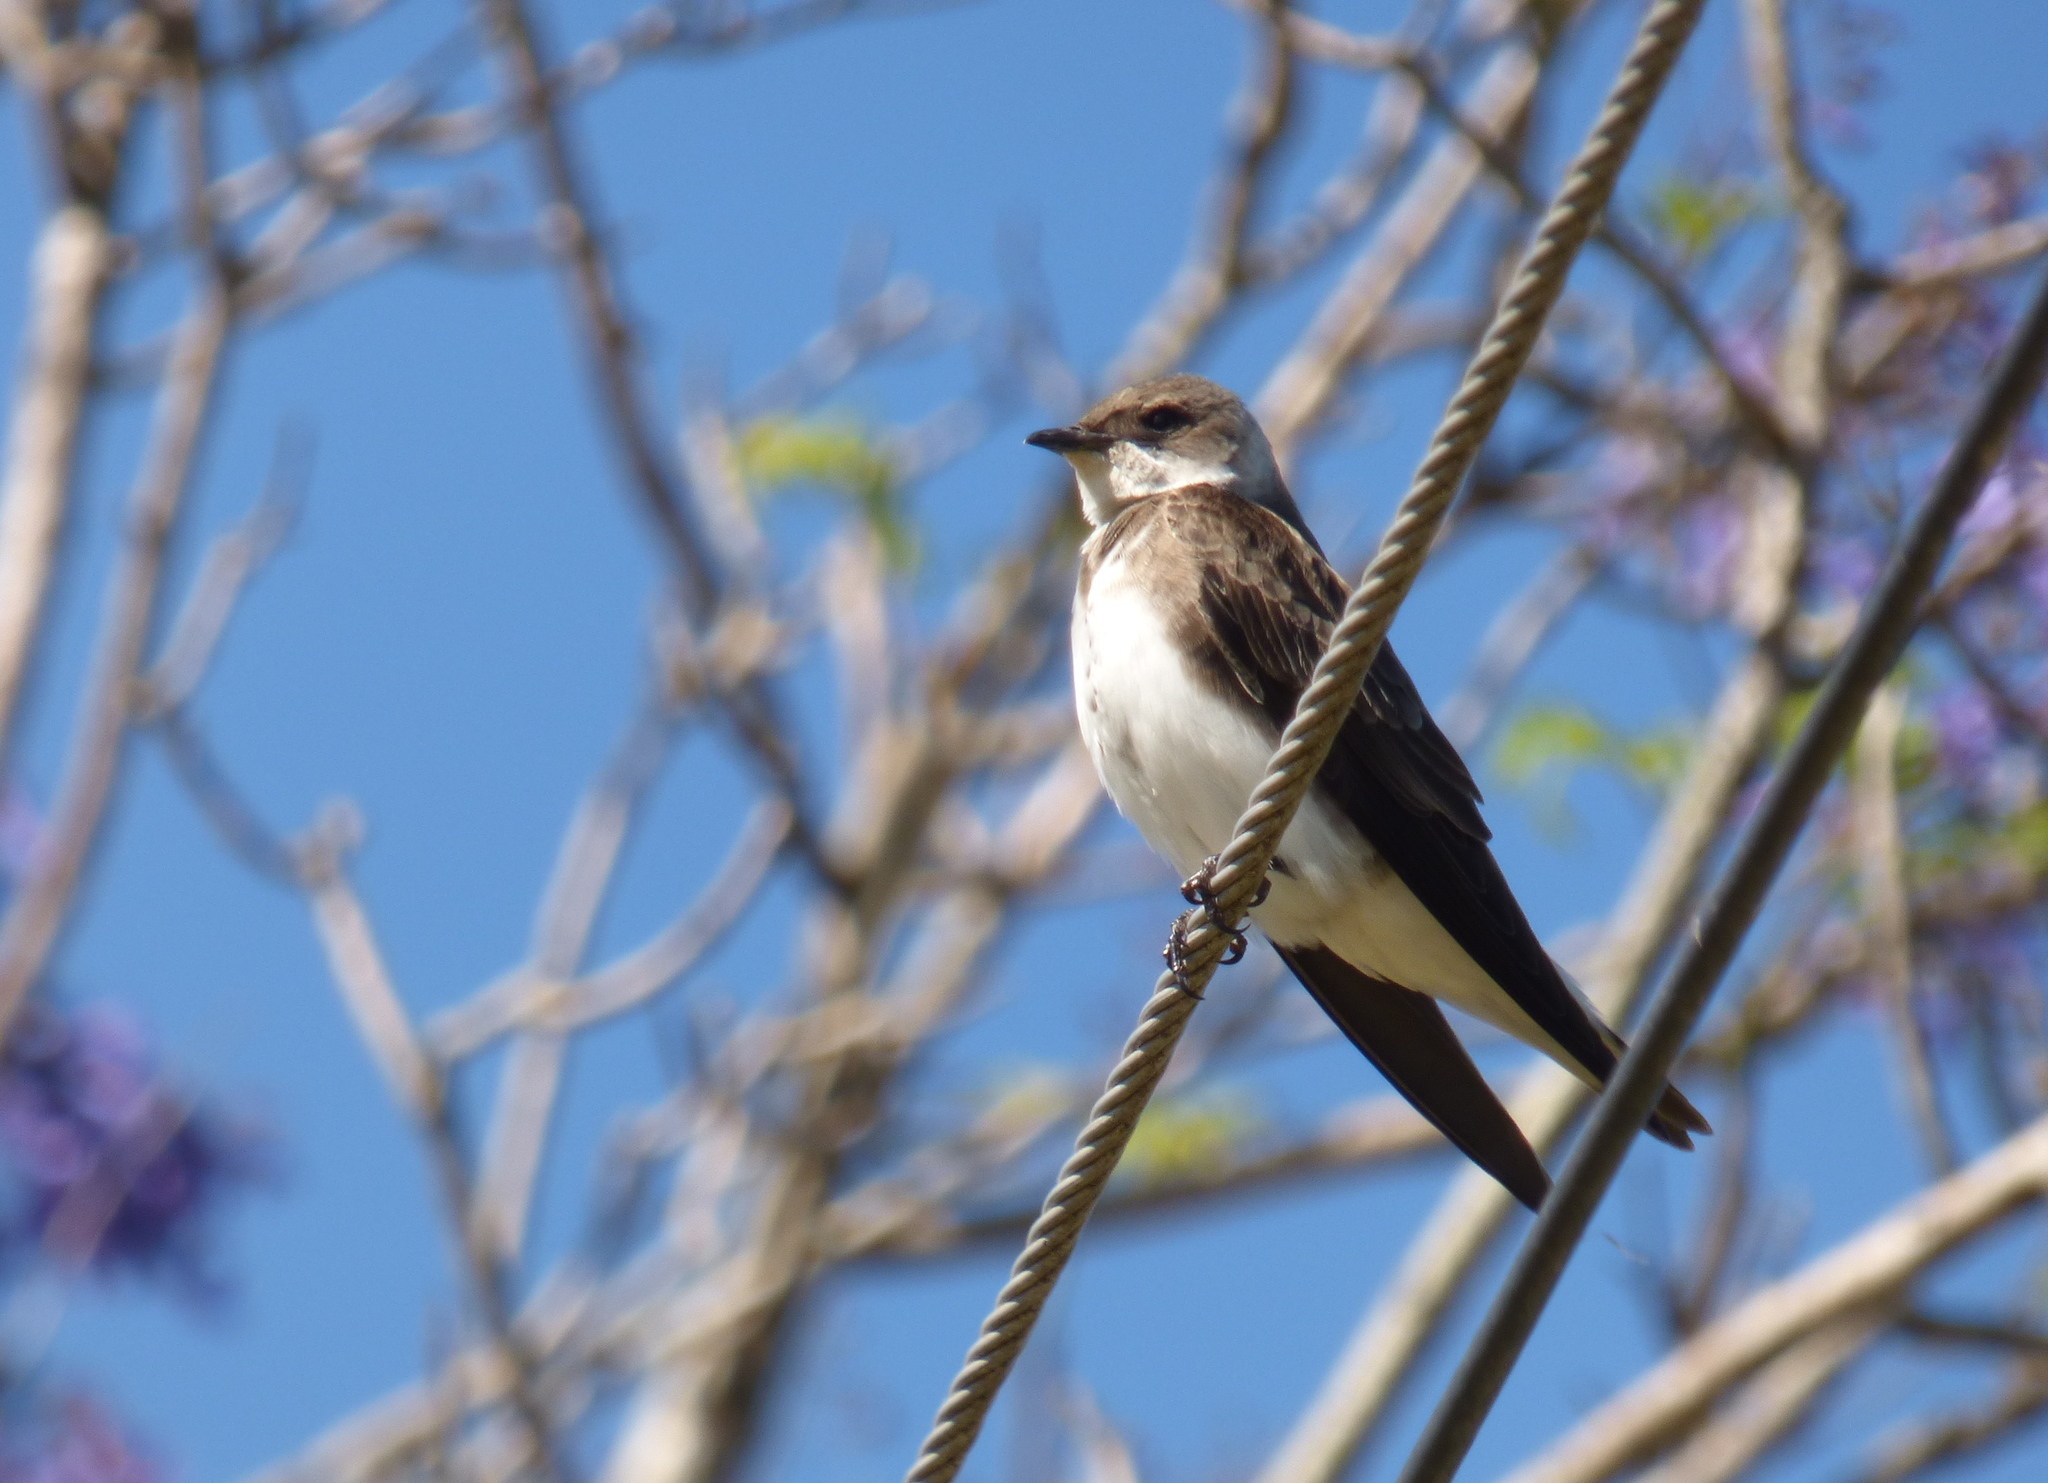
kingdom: Animalia
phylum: Chordata
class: Aves
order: Passeriformes
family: Hirundinidae
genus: Progne
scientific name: Progne tapera
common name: Brown-chested martin
